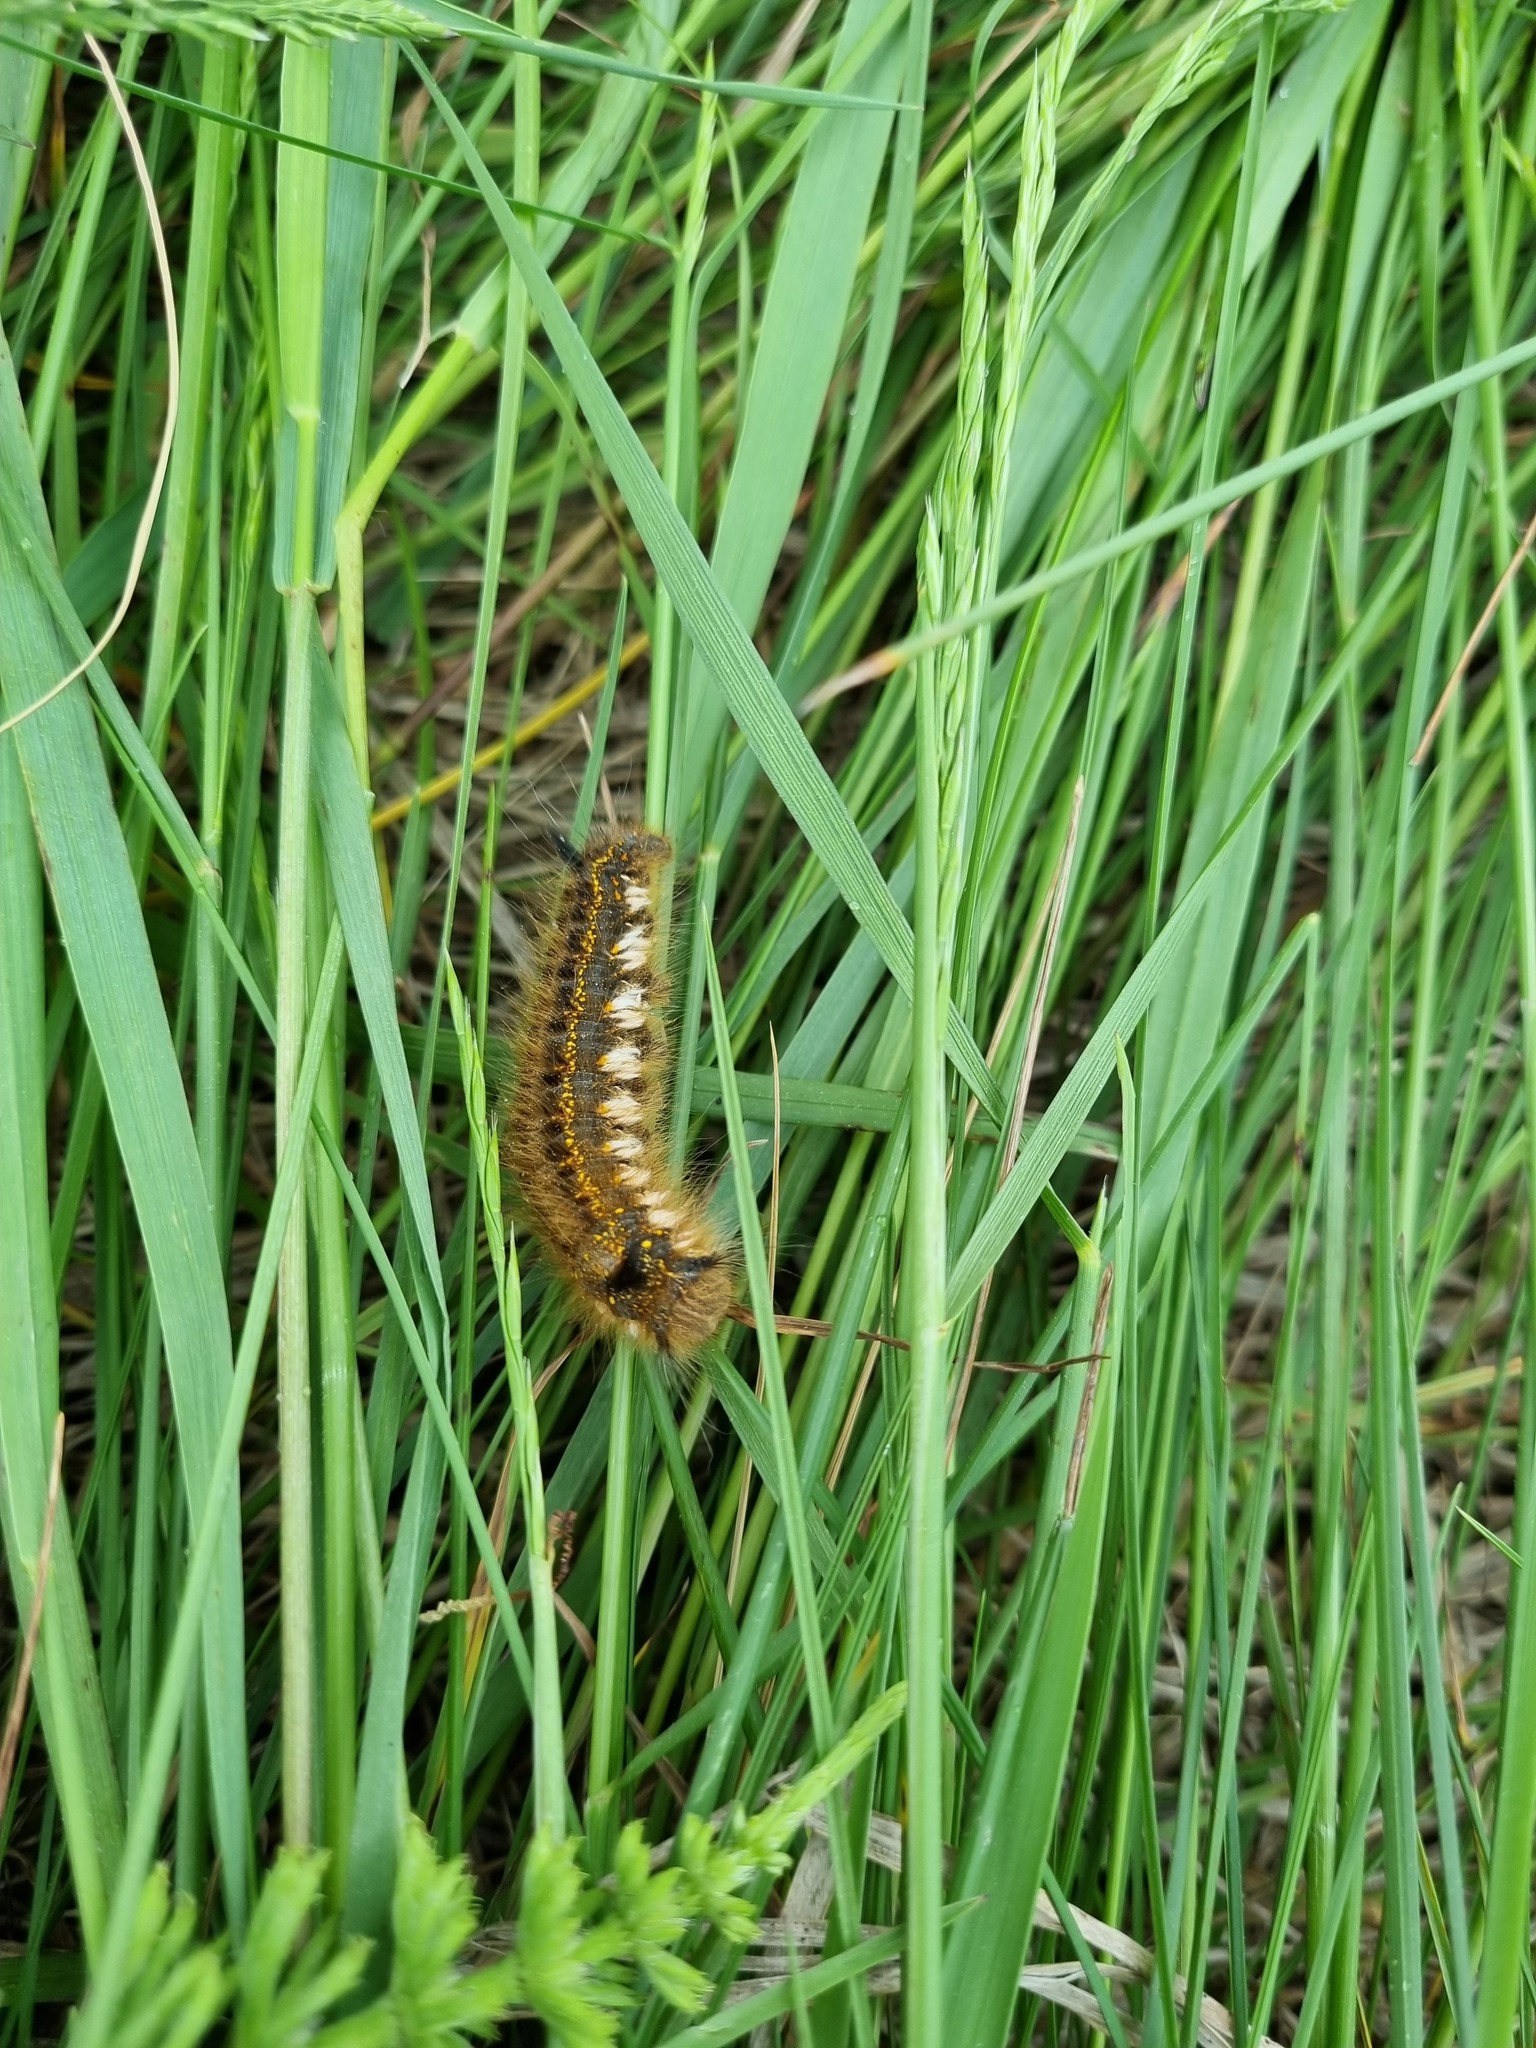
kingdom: Animalia
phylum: Arthropoda
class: Insecta
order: Lepidoptera
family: Lasiocampidae
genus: Euthrix
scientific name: Euthrix potatoria
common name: Drinker
